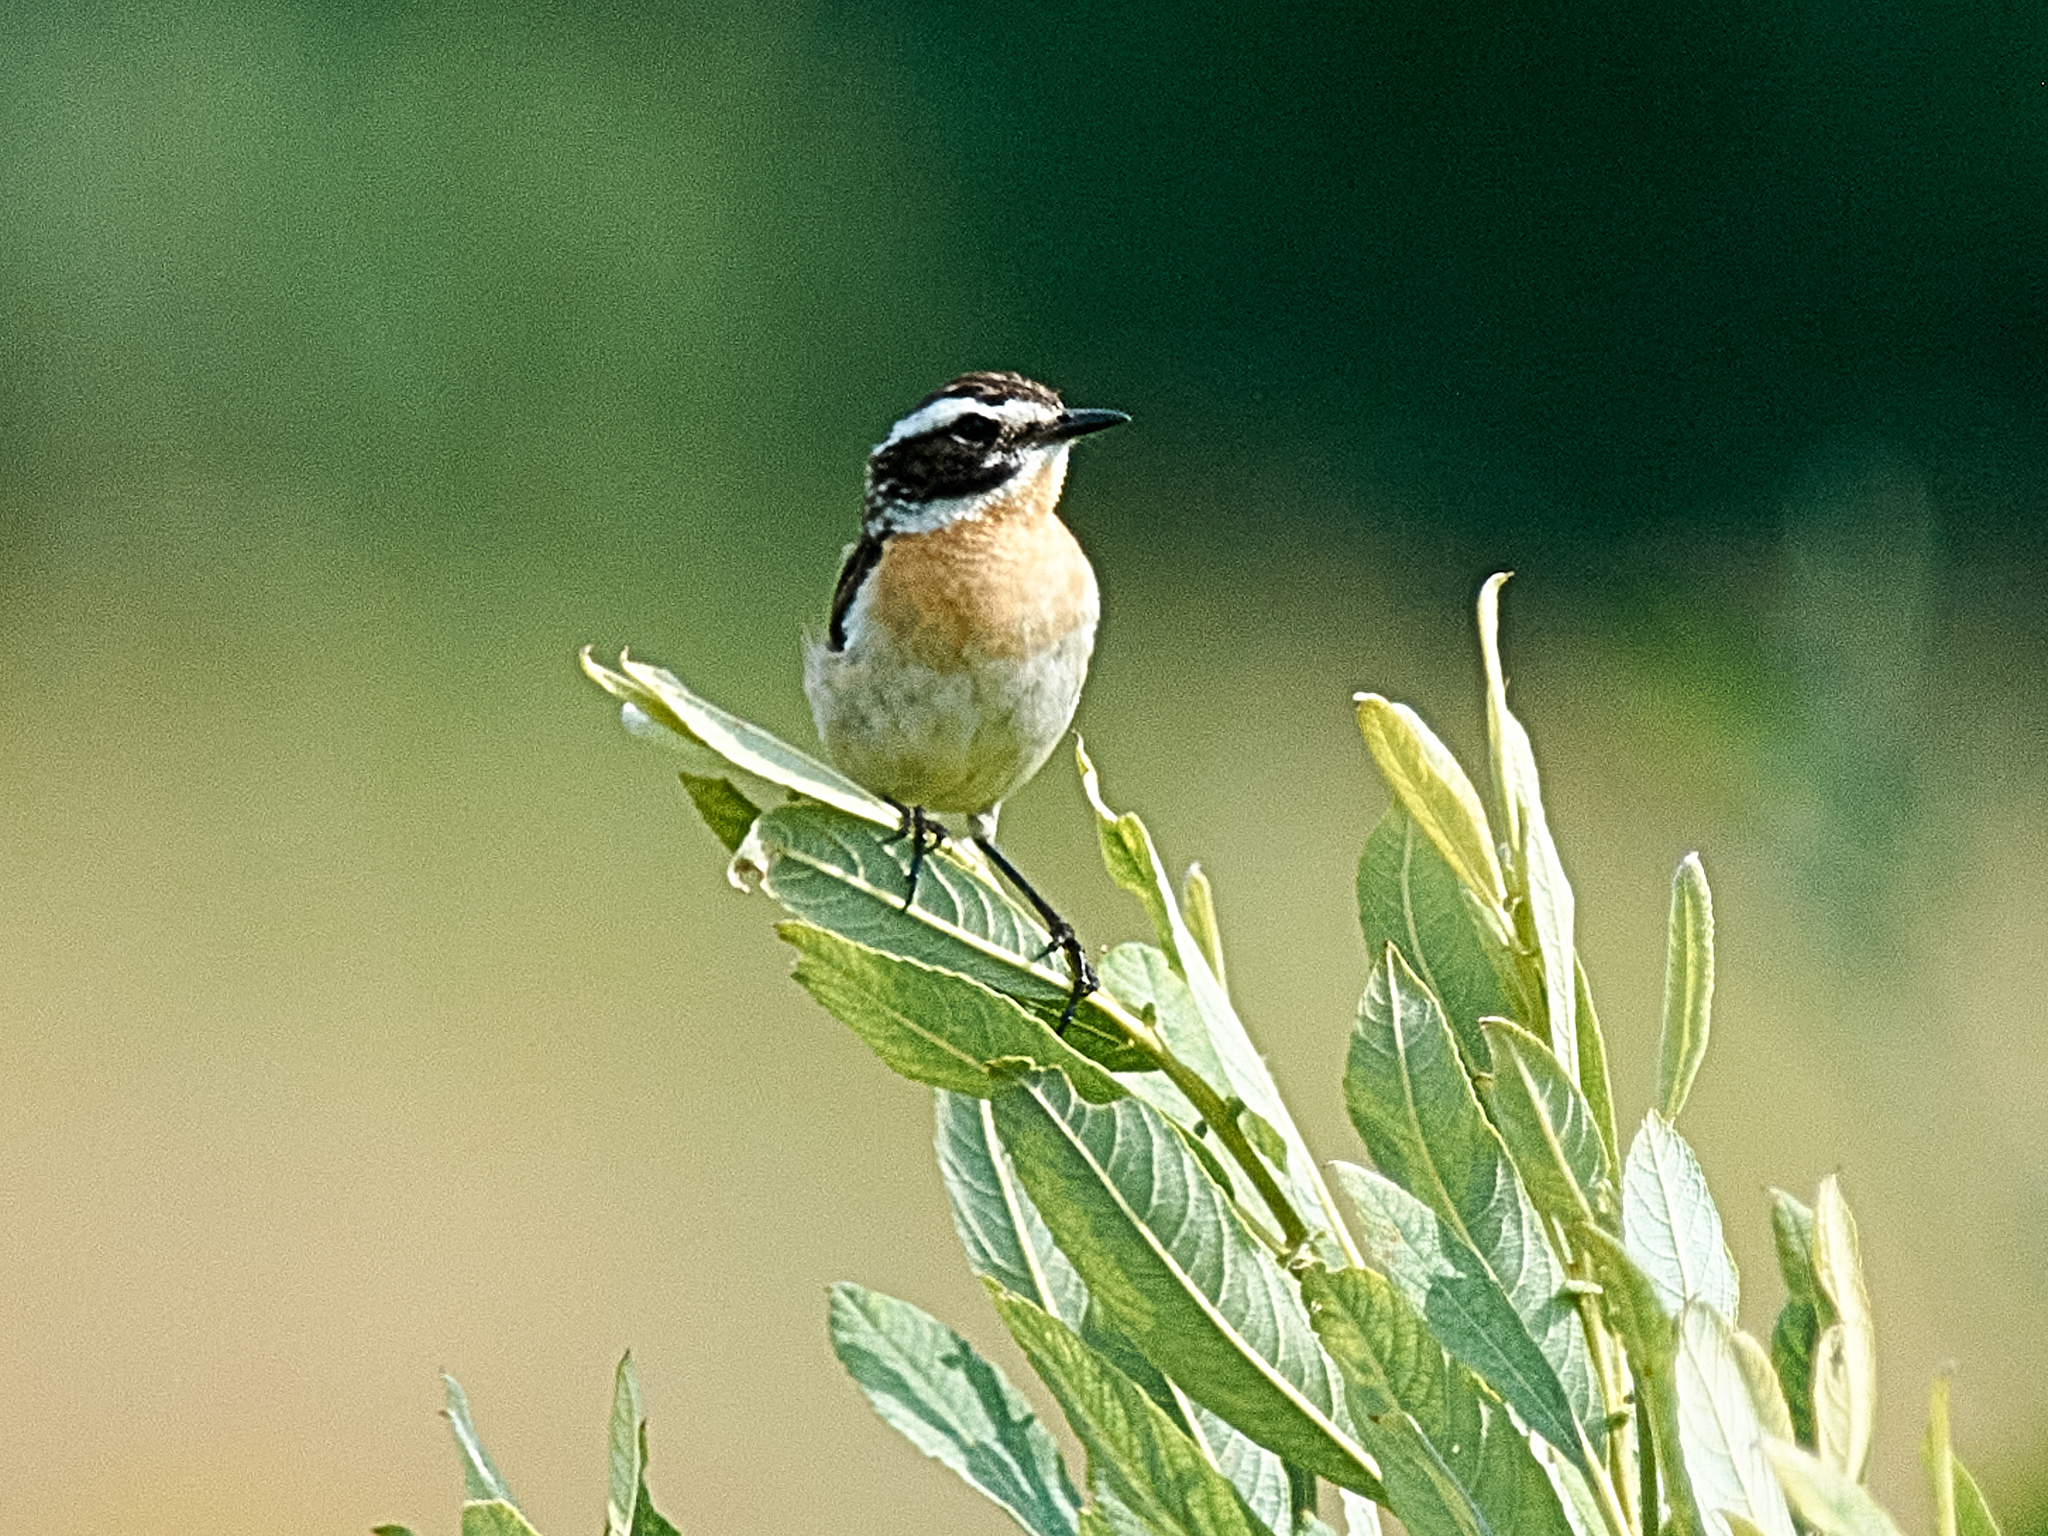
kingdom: Animalia
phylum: Chordata
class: Aves
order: Passeriformes
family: Muscicapidae
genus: Saxicola
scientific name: Saxicola rubetra
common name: Whinchat
